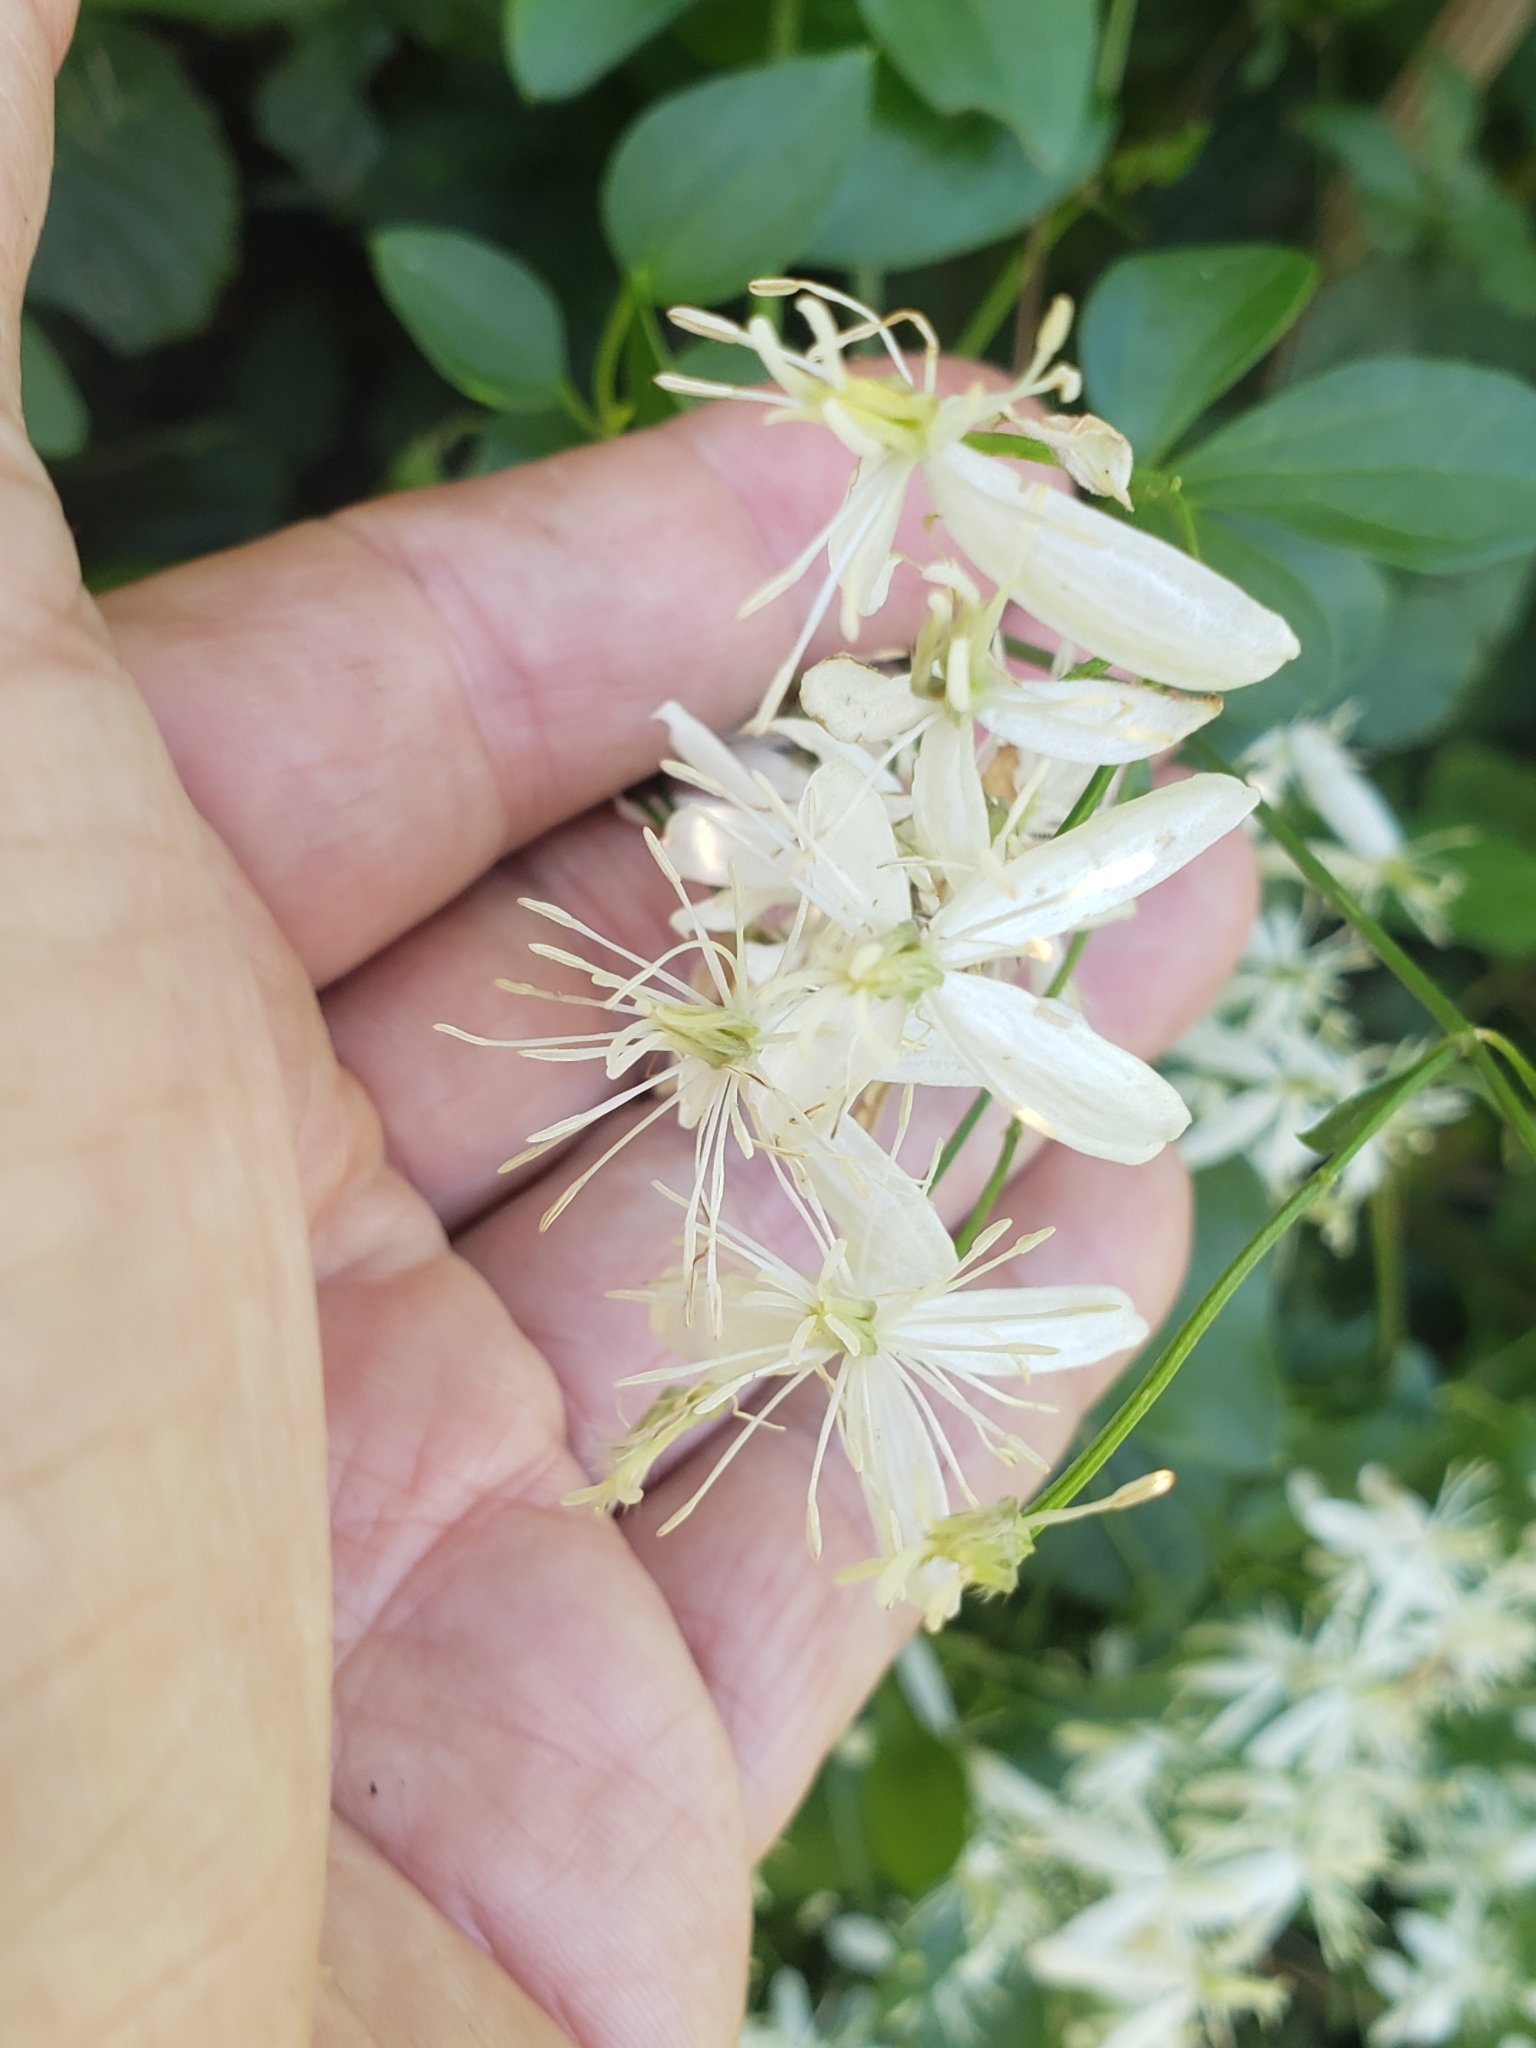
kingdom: Plantae
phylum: Tracheophyta
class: Magnoliopsida
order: Ranunculales
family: Ranunculaceae
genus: Clematis
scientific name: Clematis terniflora
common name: Sweet autumn clematis
